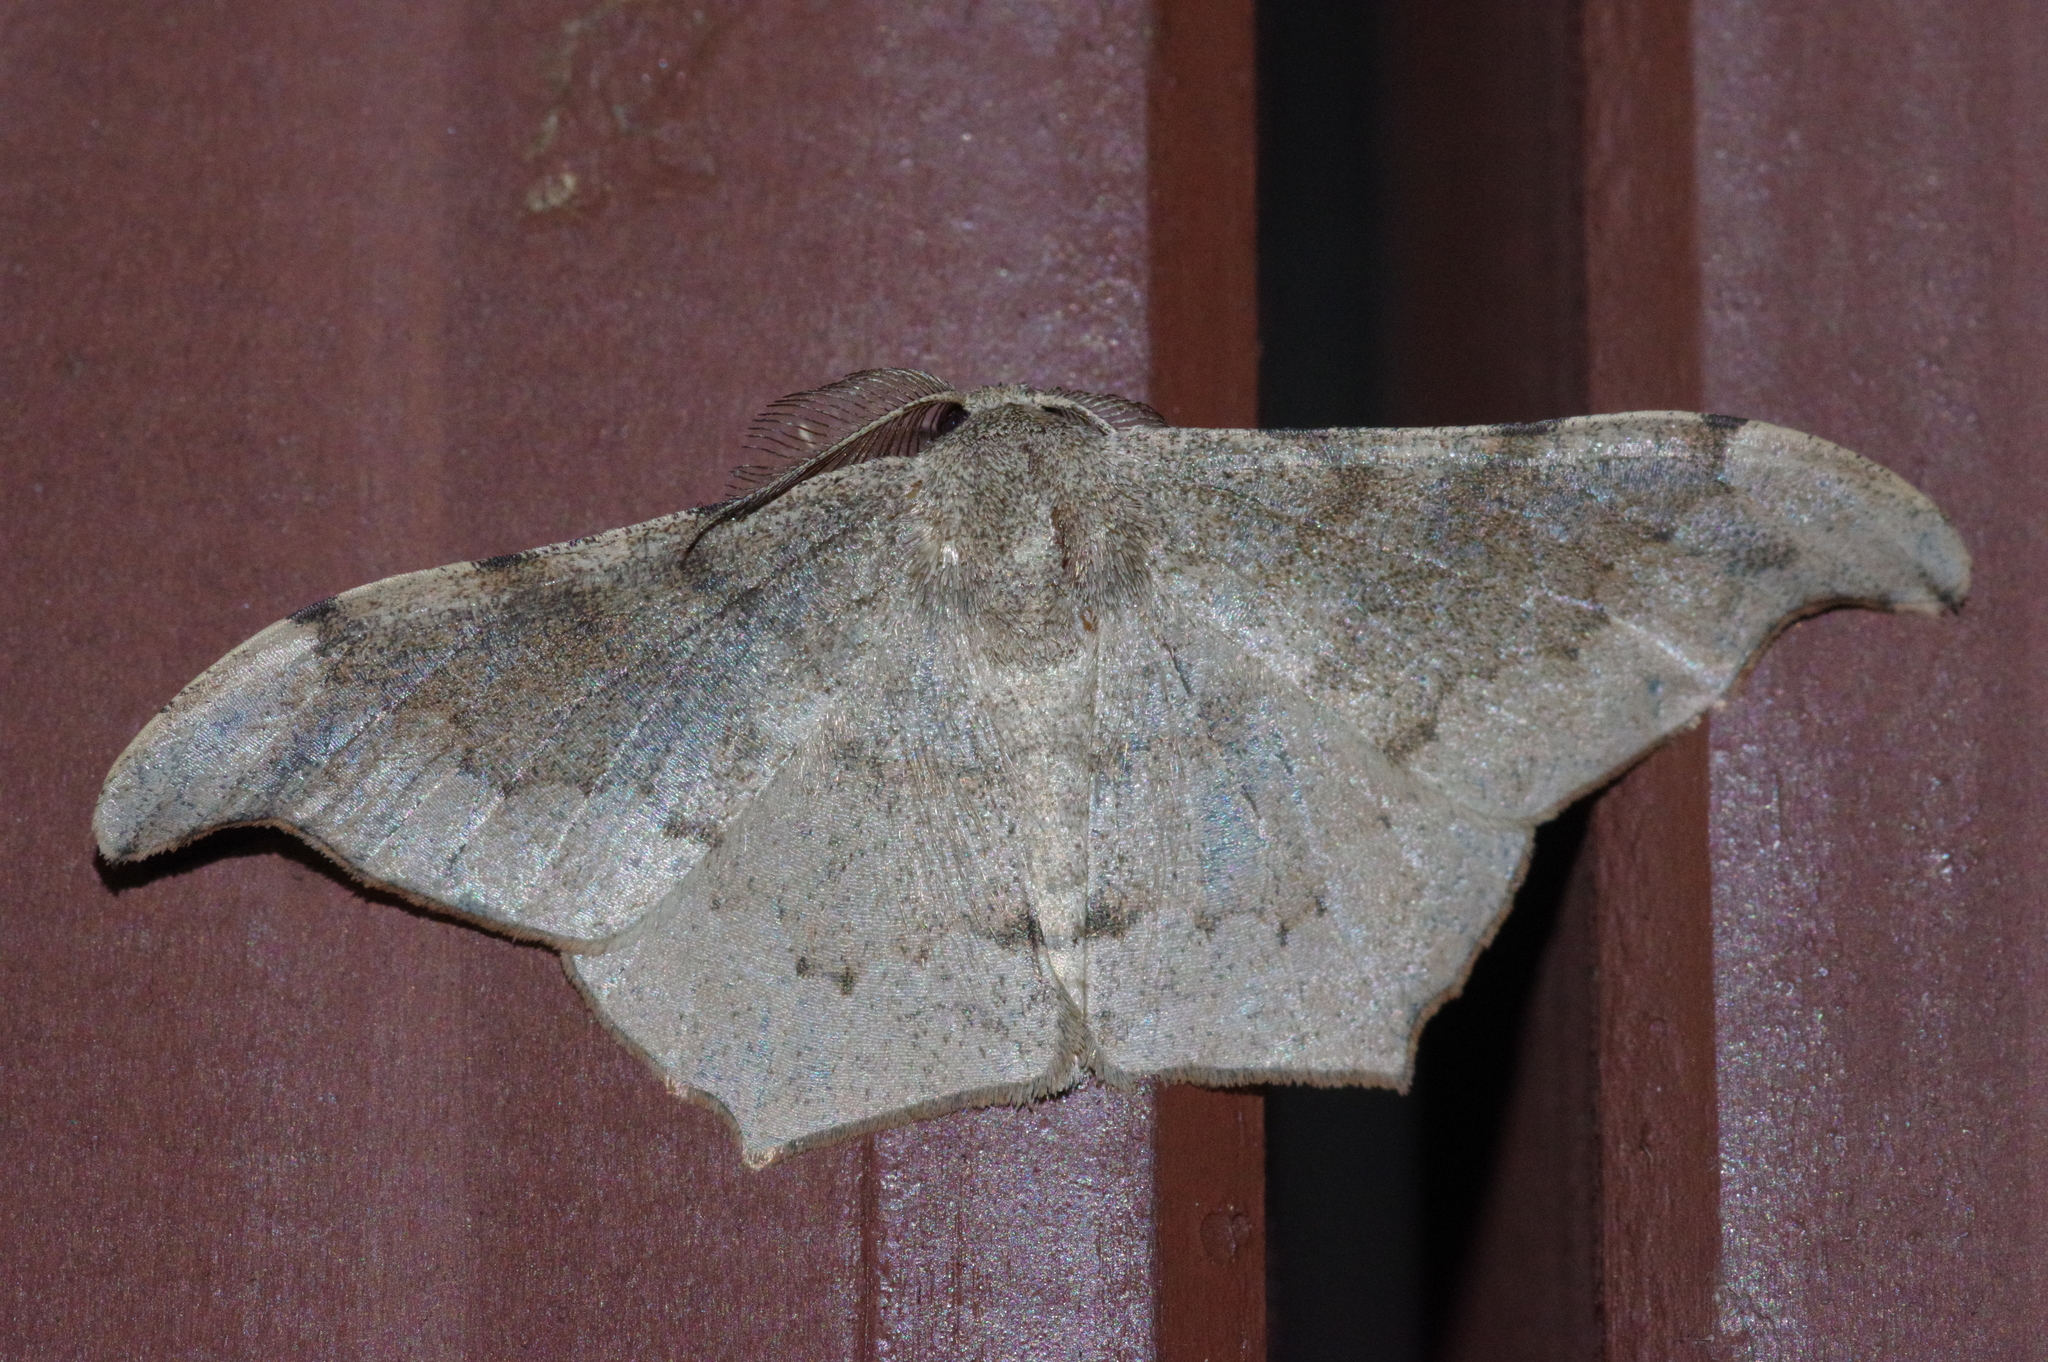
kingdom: Animalia
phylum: Arthropoda
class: Insecta
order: Lepidoptera
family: Geometridae
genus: Hyposidra
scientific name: Hyposidra talaca
